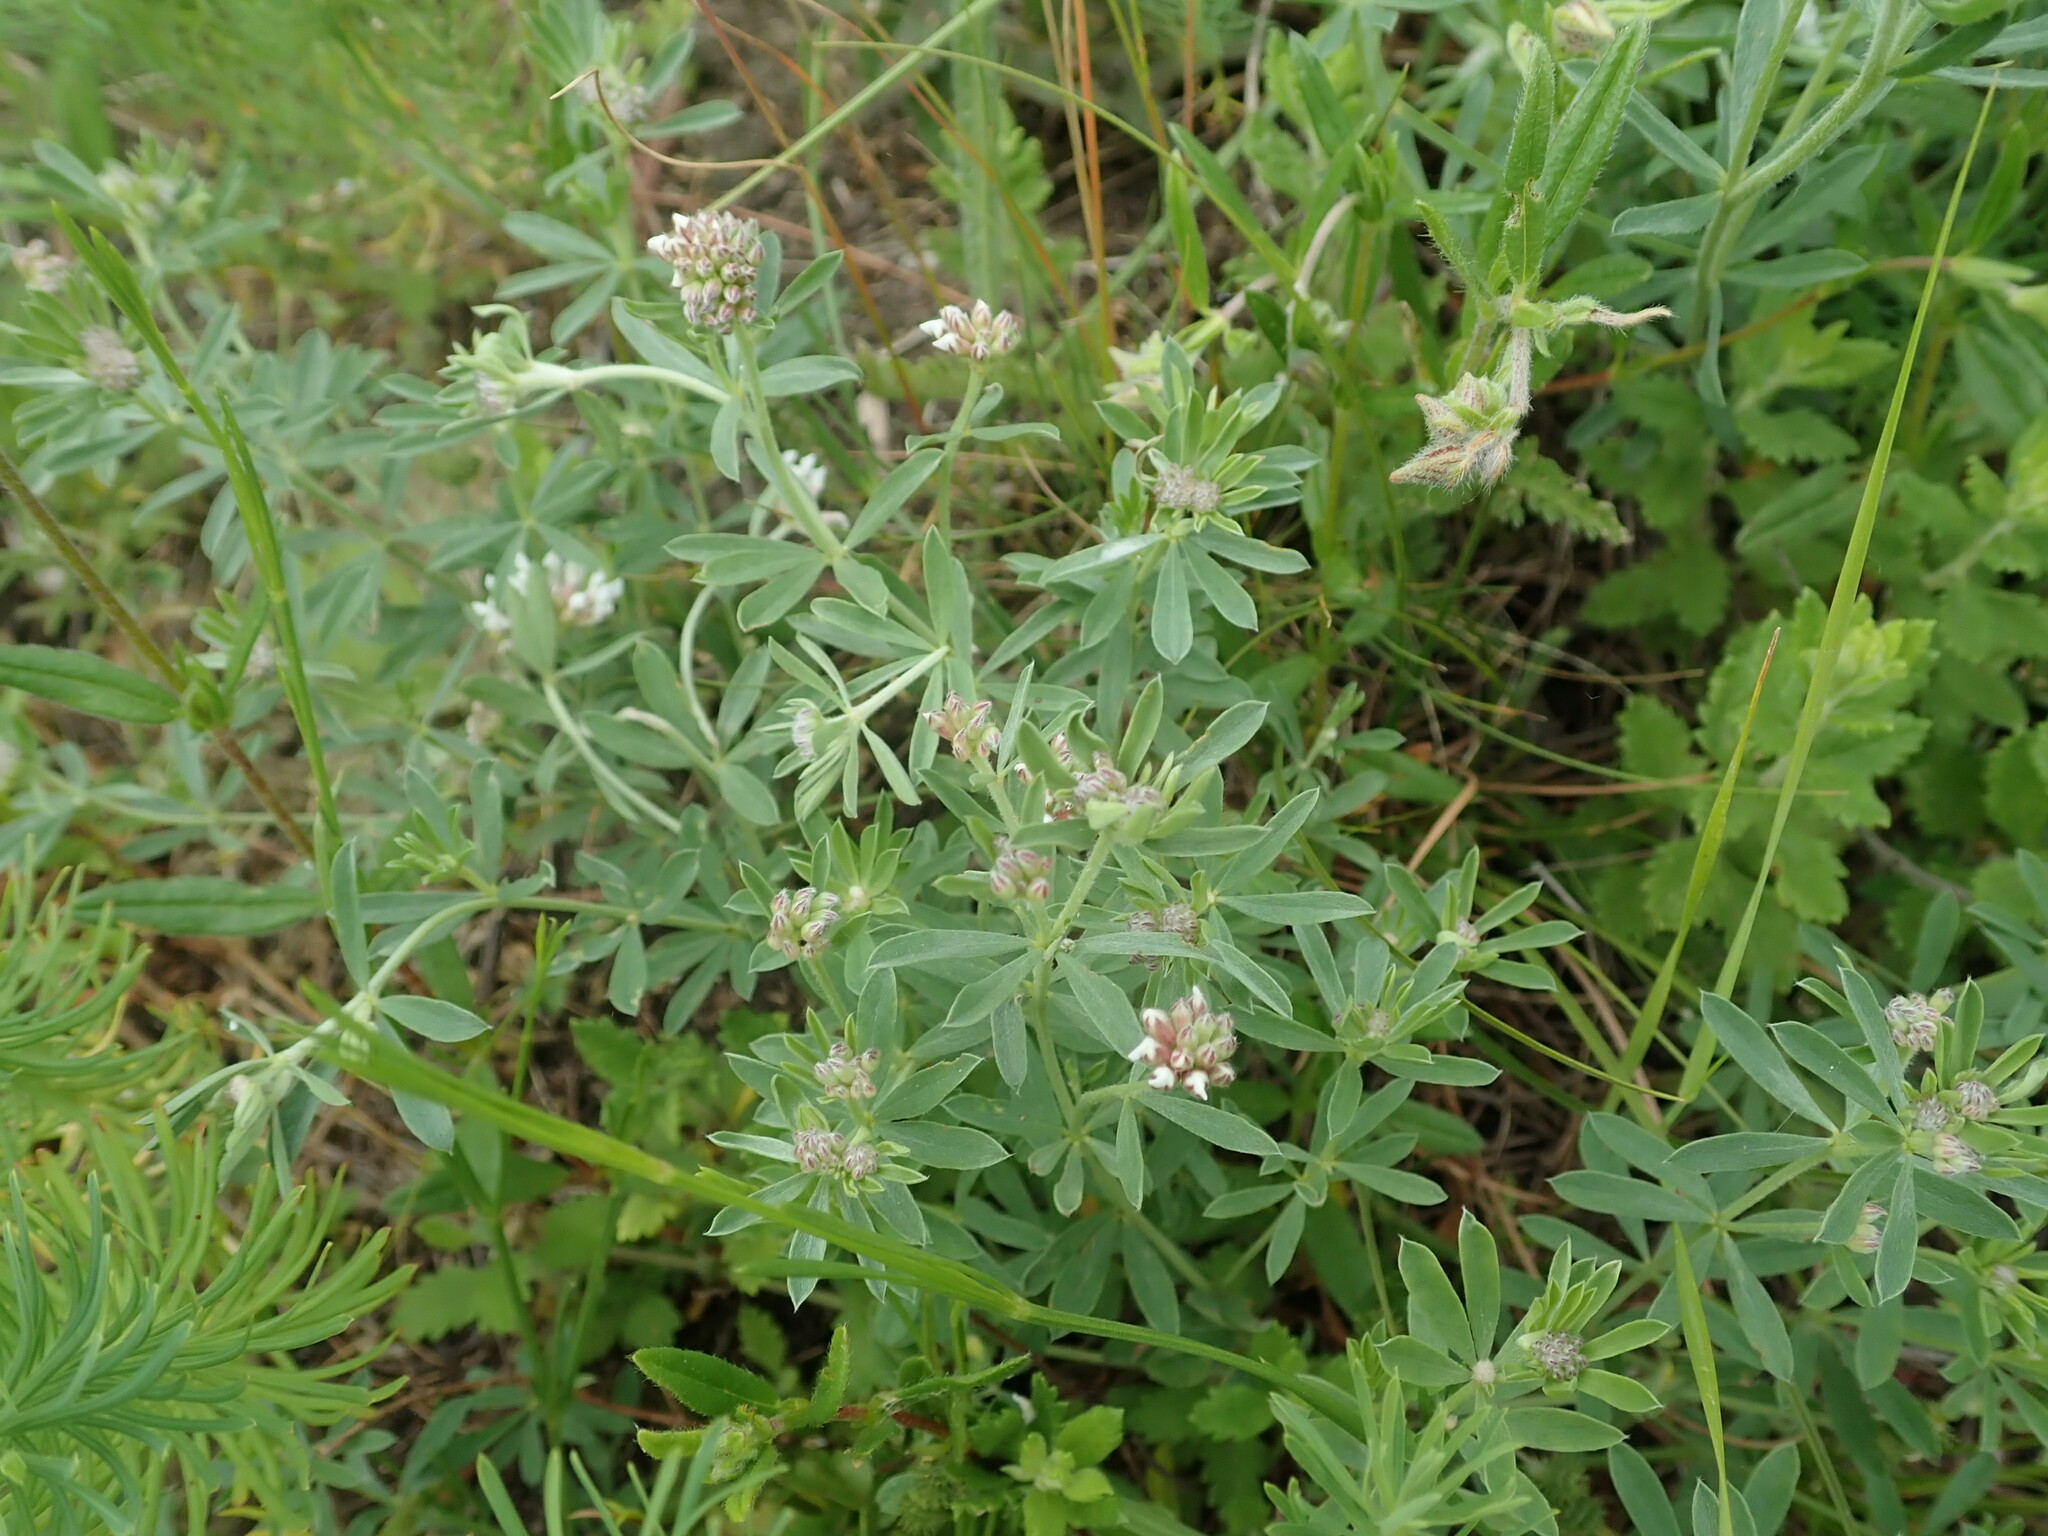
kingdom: Plantae
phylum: Tracheophyta
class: Magnoliopsida
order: Fabales
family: Fabaceae
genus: Lotus
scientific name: Lotus germanicus
